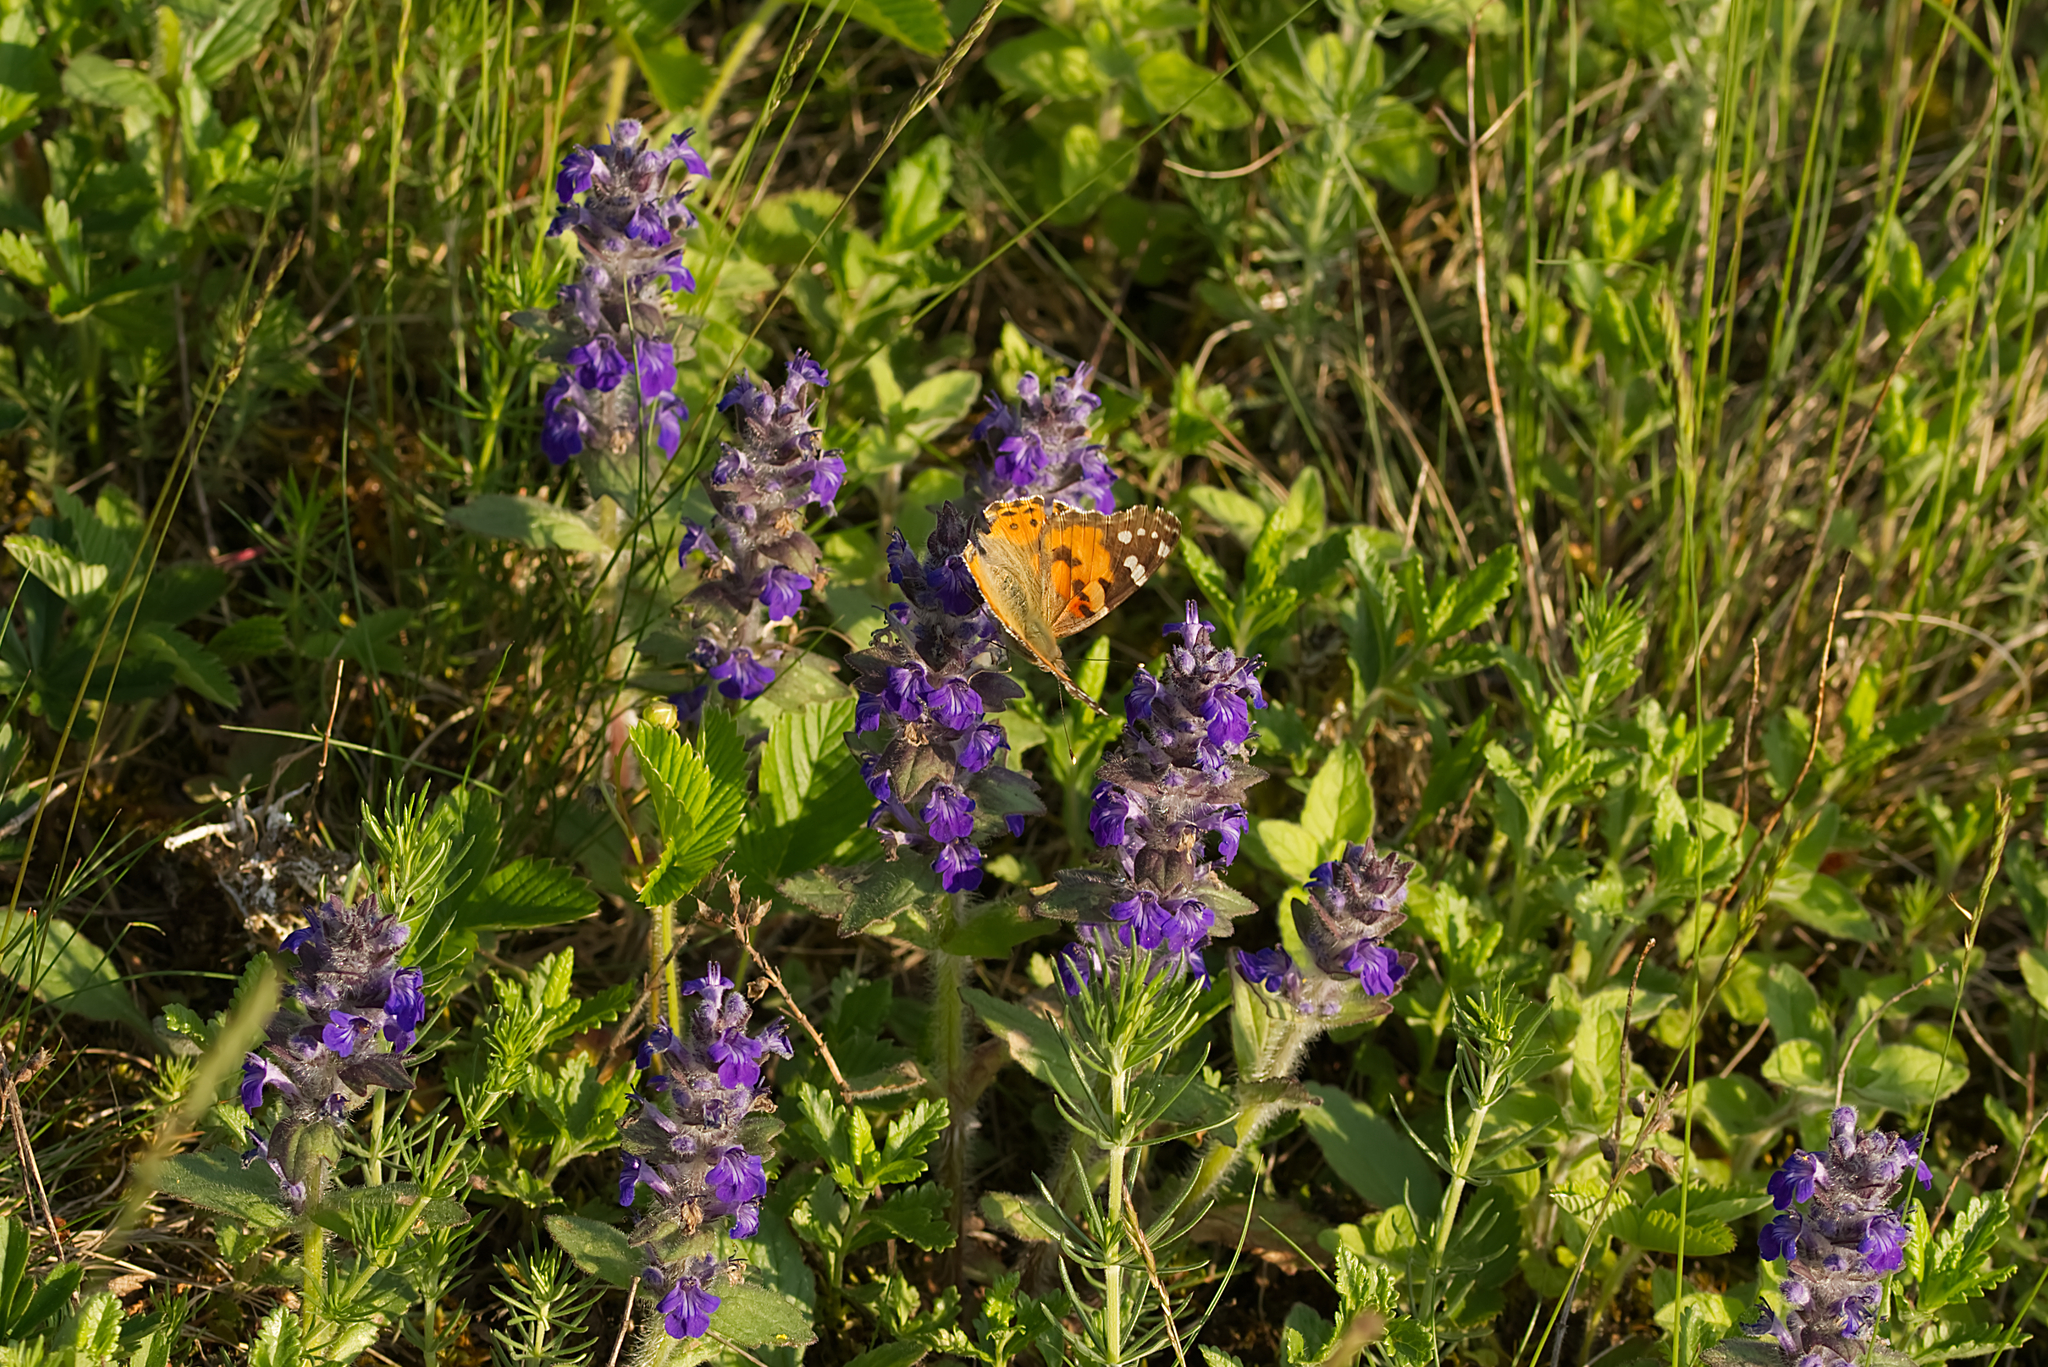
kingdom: Animalia
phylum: Arthropoda
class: Insecta
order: Lepidoptera
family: Nymphalidae
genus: Vanessa
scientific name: Vanessa cardui
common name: Painted lady
